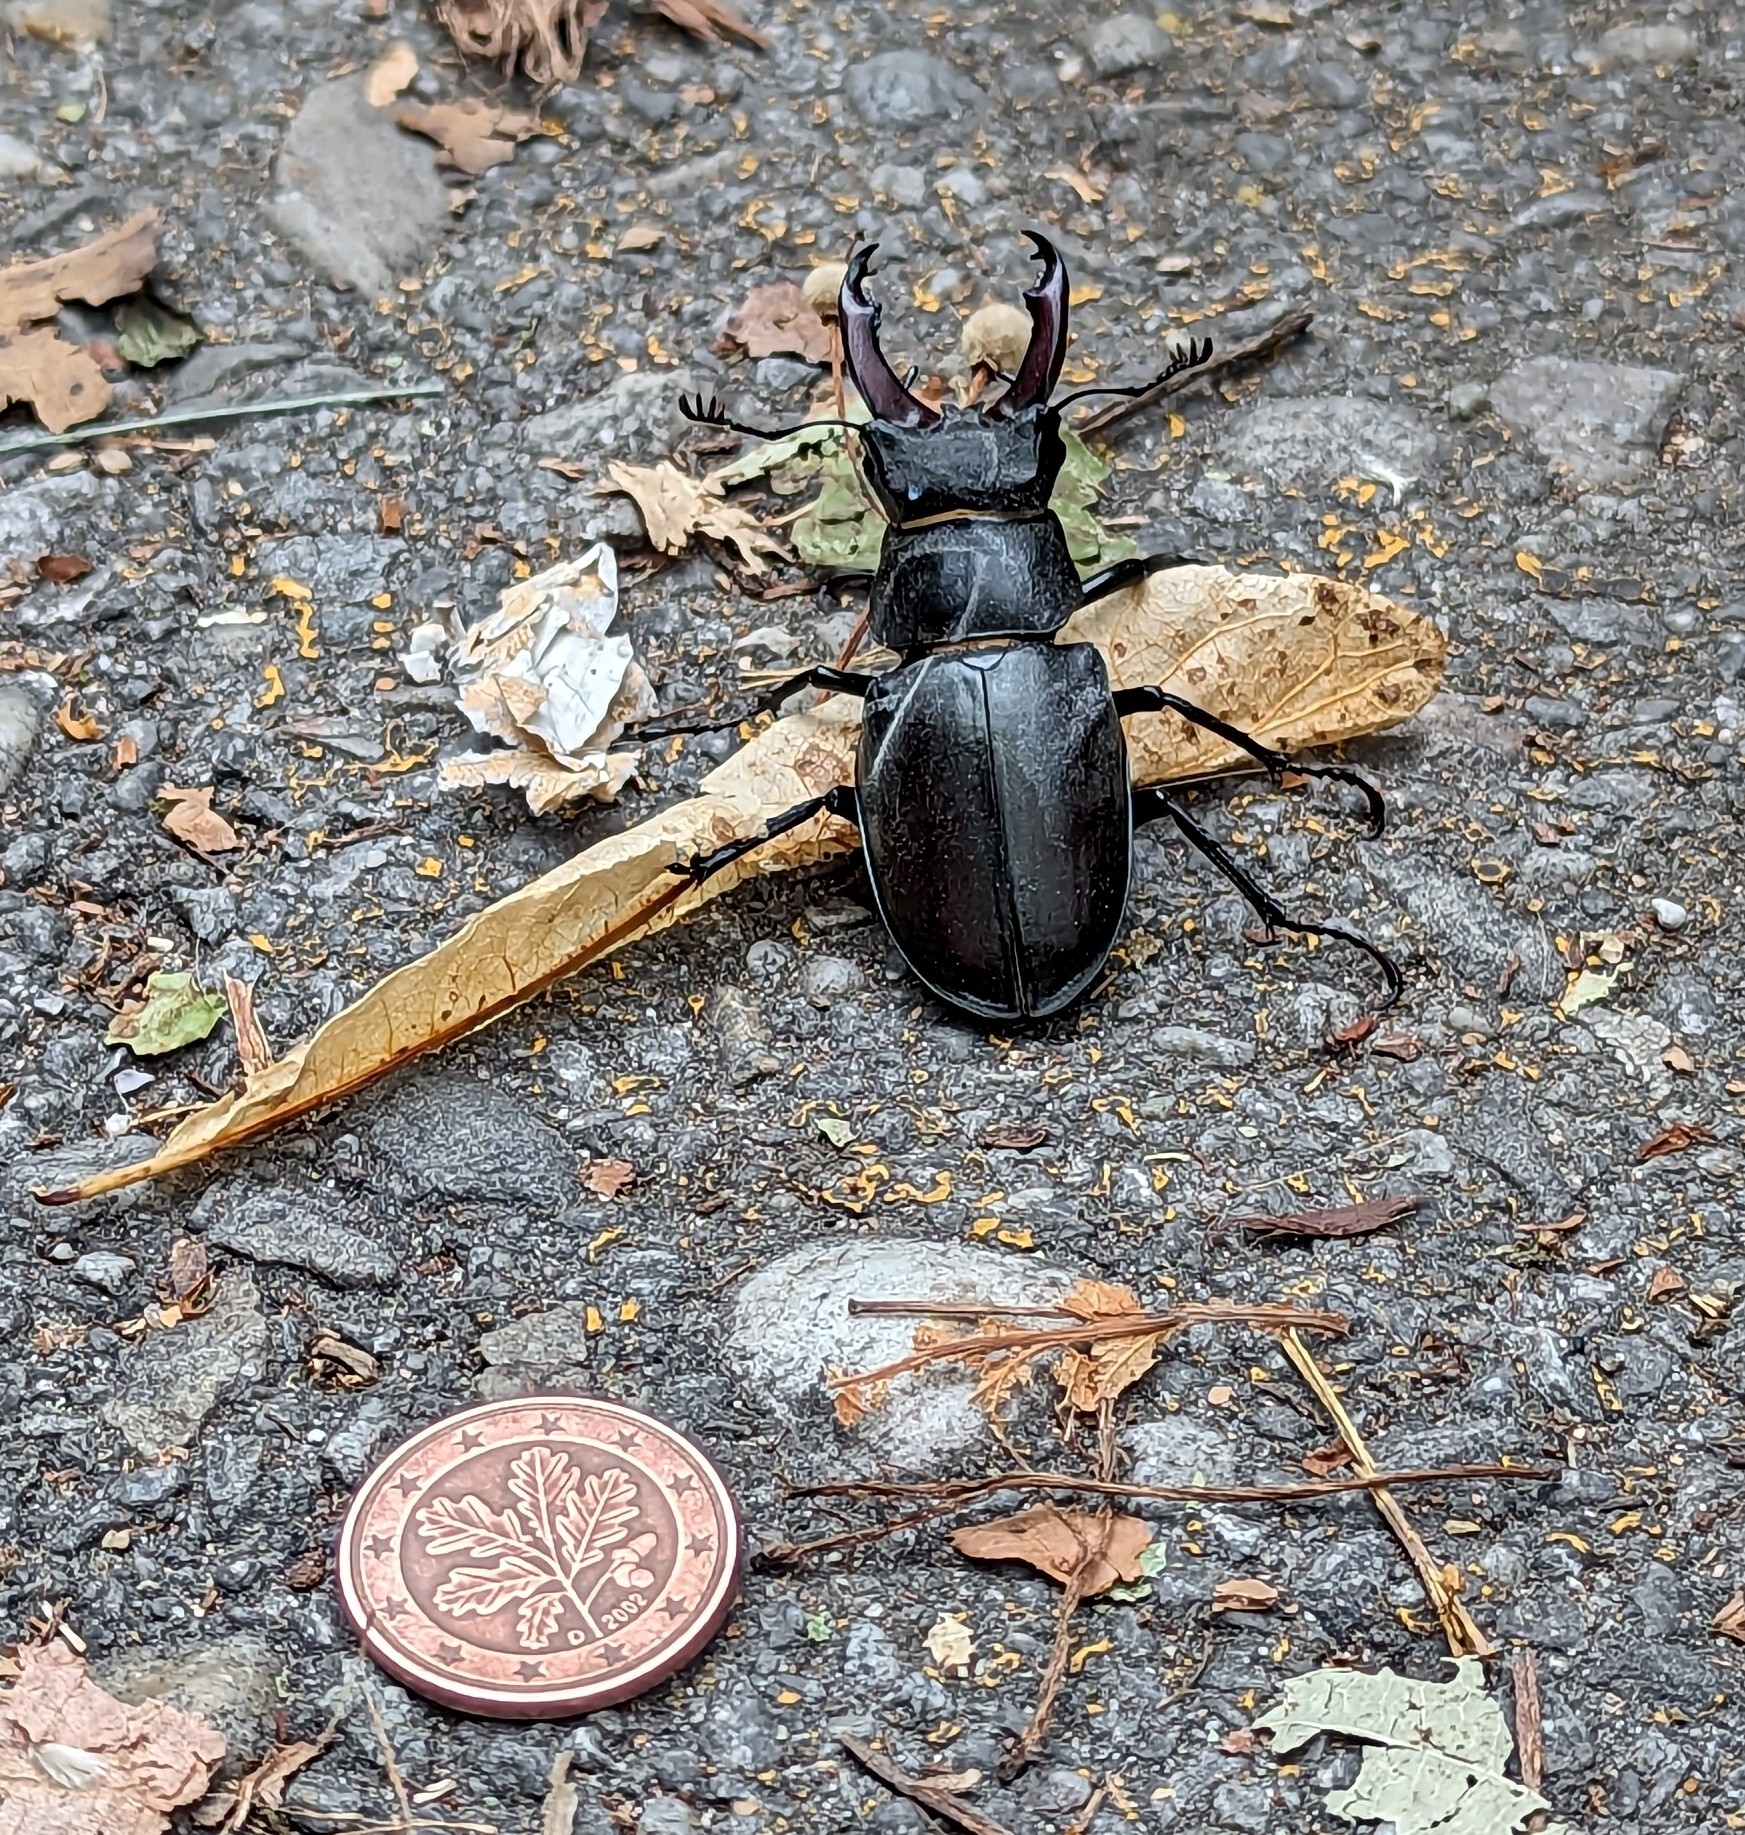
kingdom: Animalia
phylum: Arthropoda
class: Insecta
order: Coleoptera
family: Lucanidae
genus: Lucanus
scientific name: Lucanus cervus
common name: Stag beetle
